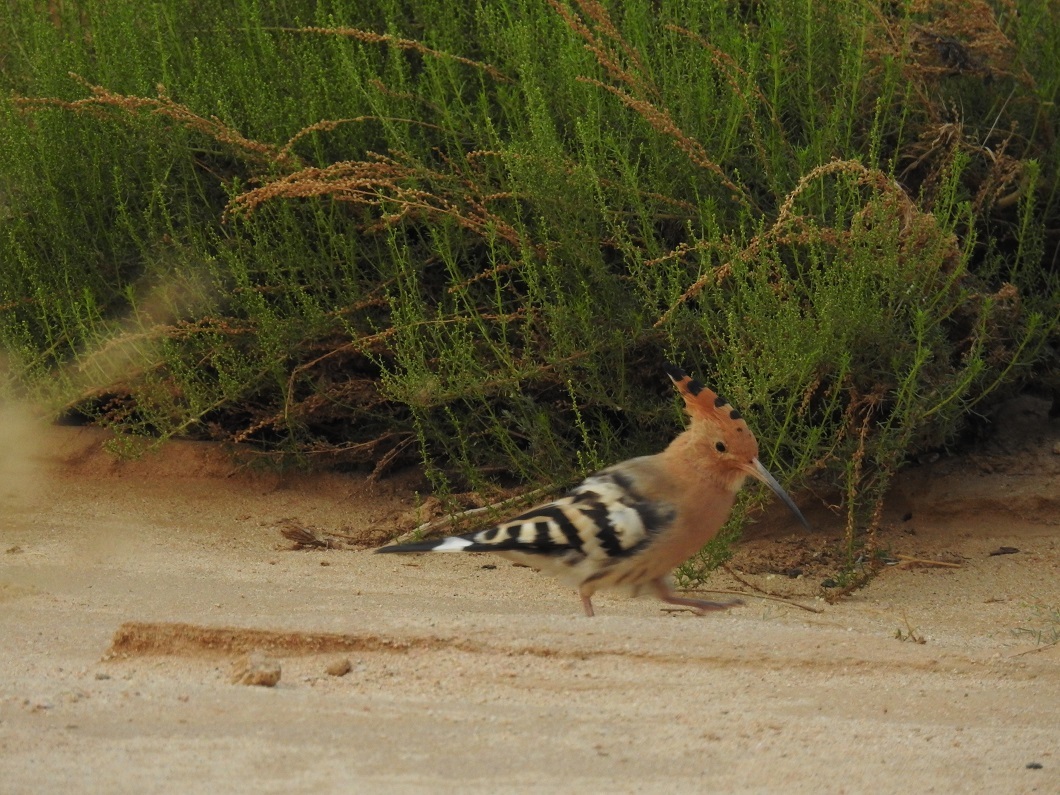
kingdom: Animalia
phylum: Chordata
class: Aves
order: Bucerotiformes
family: Upupidae
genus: Upupa
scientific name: Upupa epops
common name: Eurasian hoopoe
